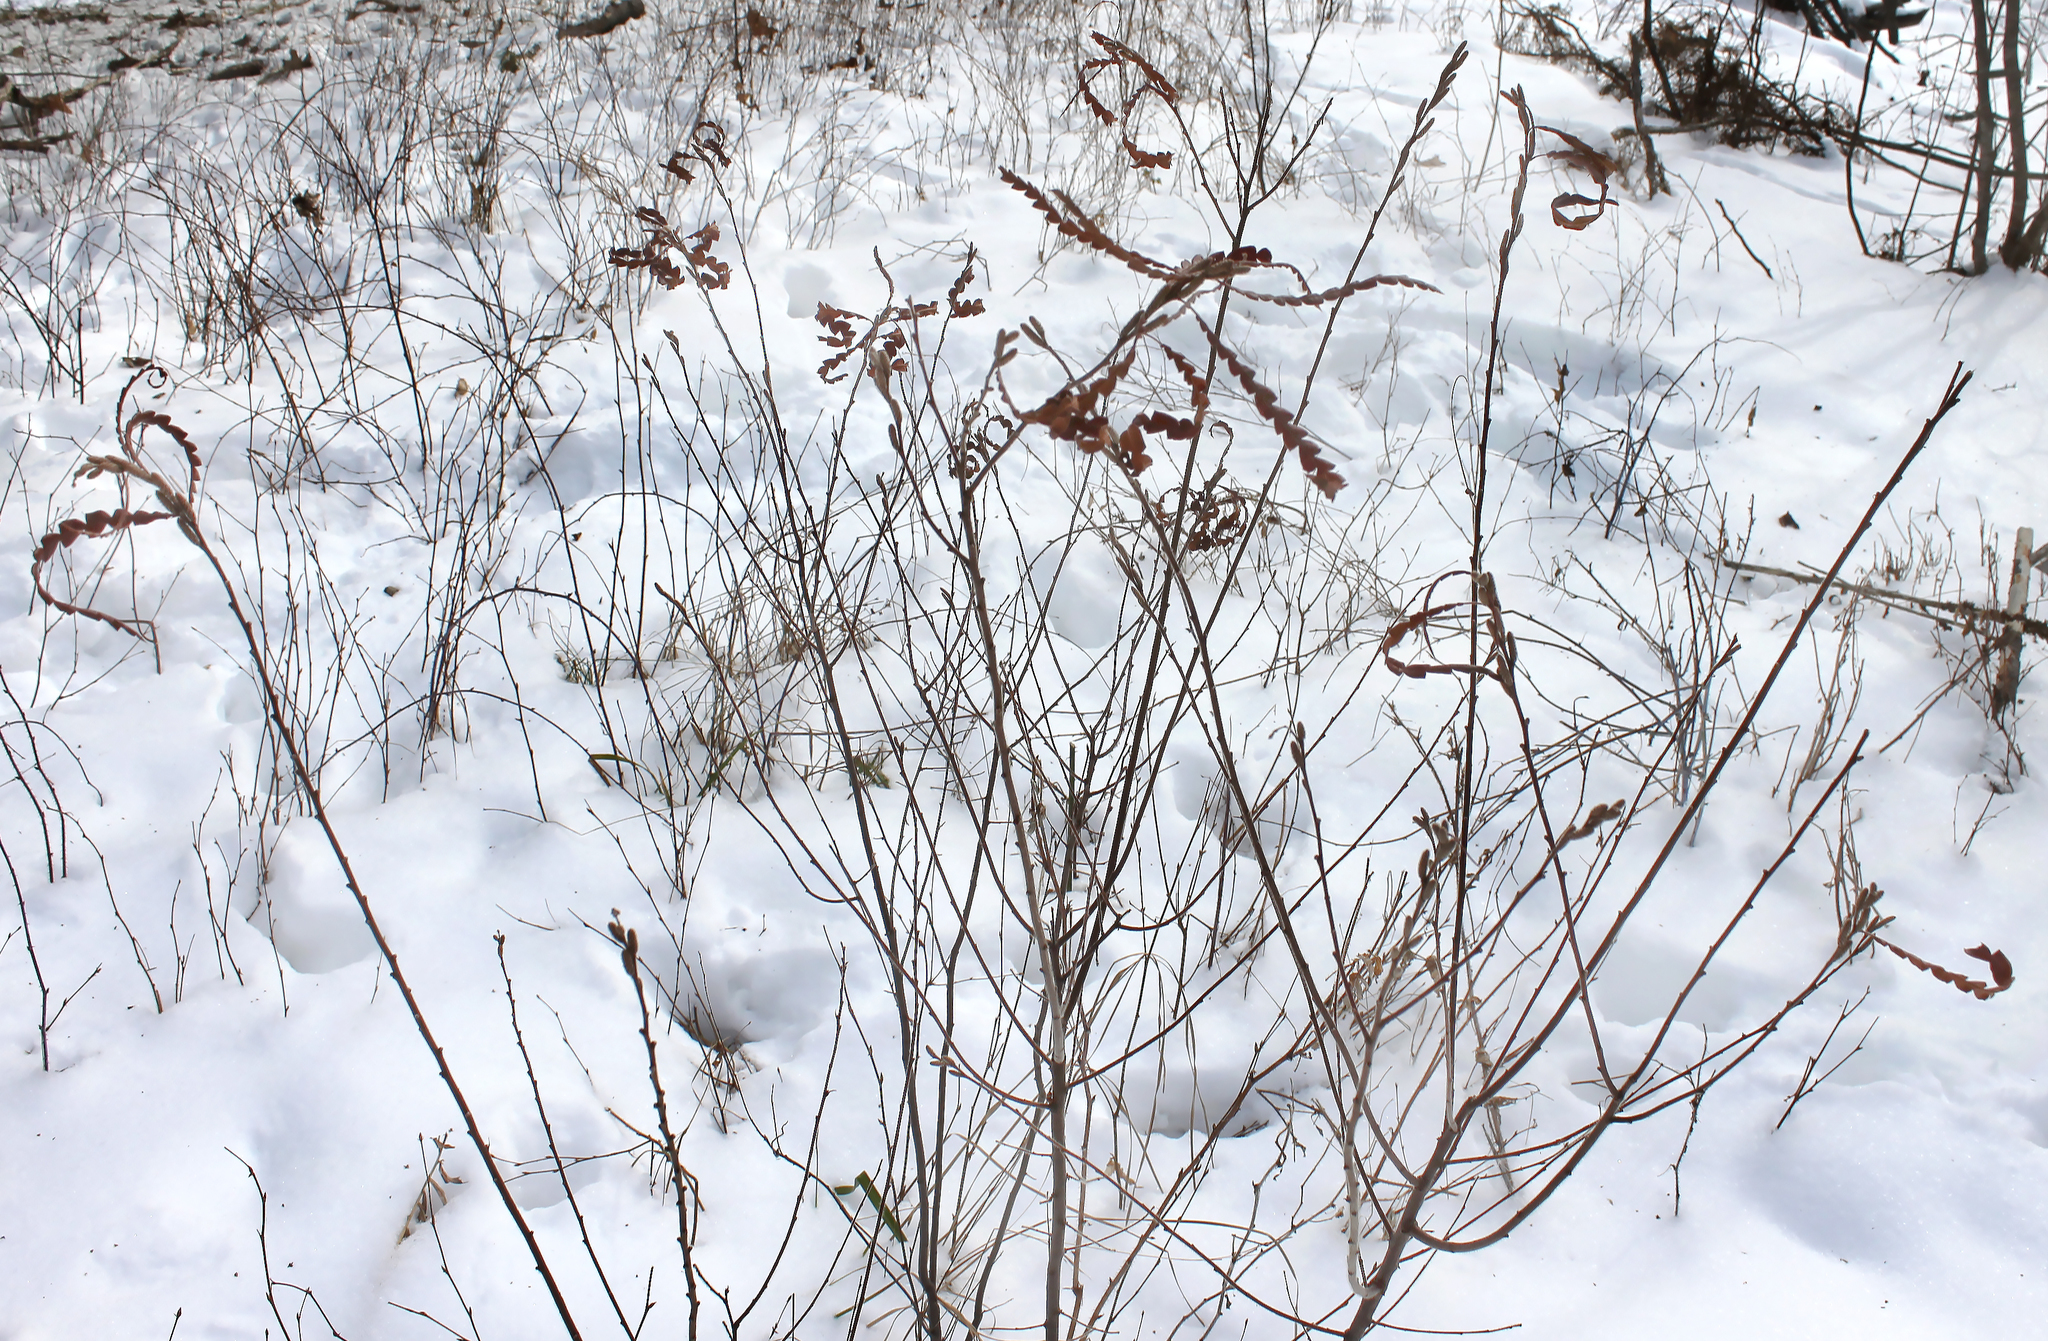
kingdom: Plantae
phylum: Tracheophyta
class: Magnoliopsida
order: Fagales
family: Myricaceae
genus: Comptonia
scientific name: Comptonia peregrina
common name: Sweet-fern
